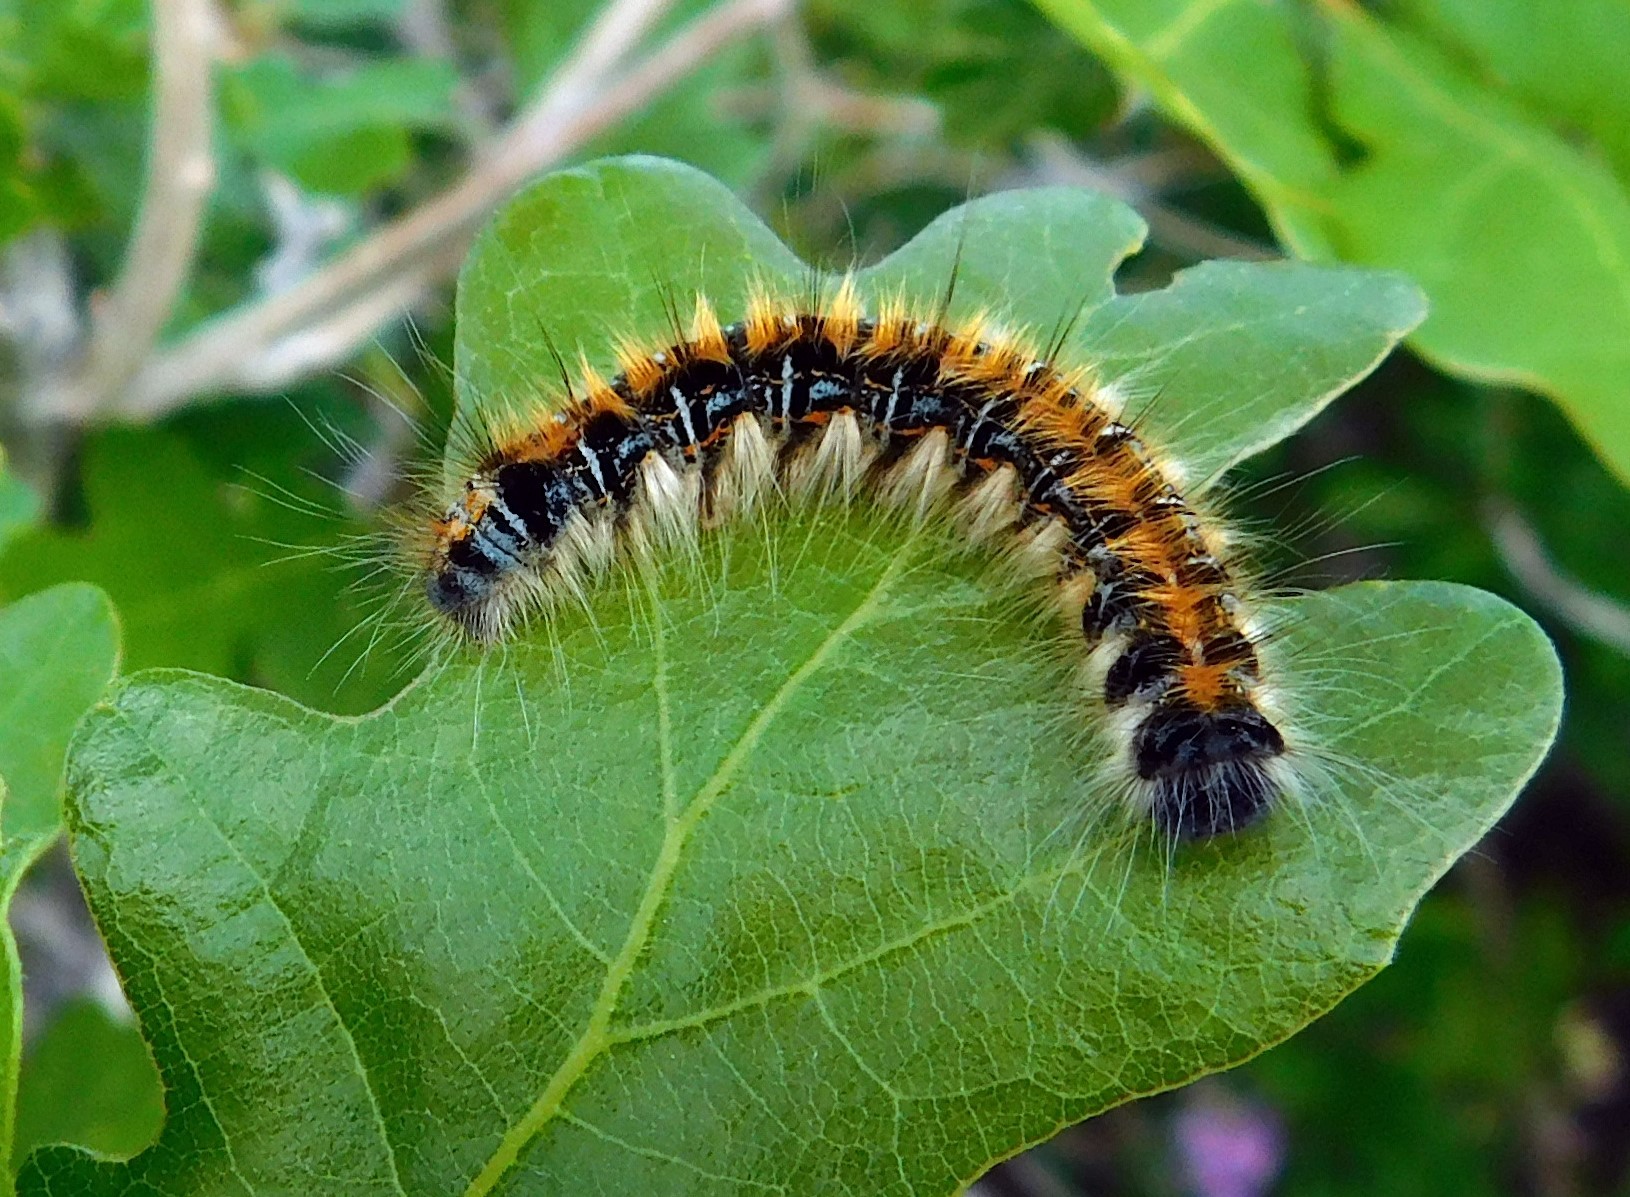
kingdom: Animalia
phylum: Arthropoda
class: Insecta
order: Lepidoptera
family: Lasiocampidae
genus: Malacosoma
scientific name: Malacosoma tigris
